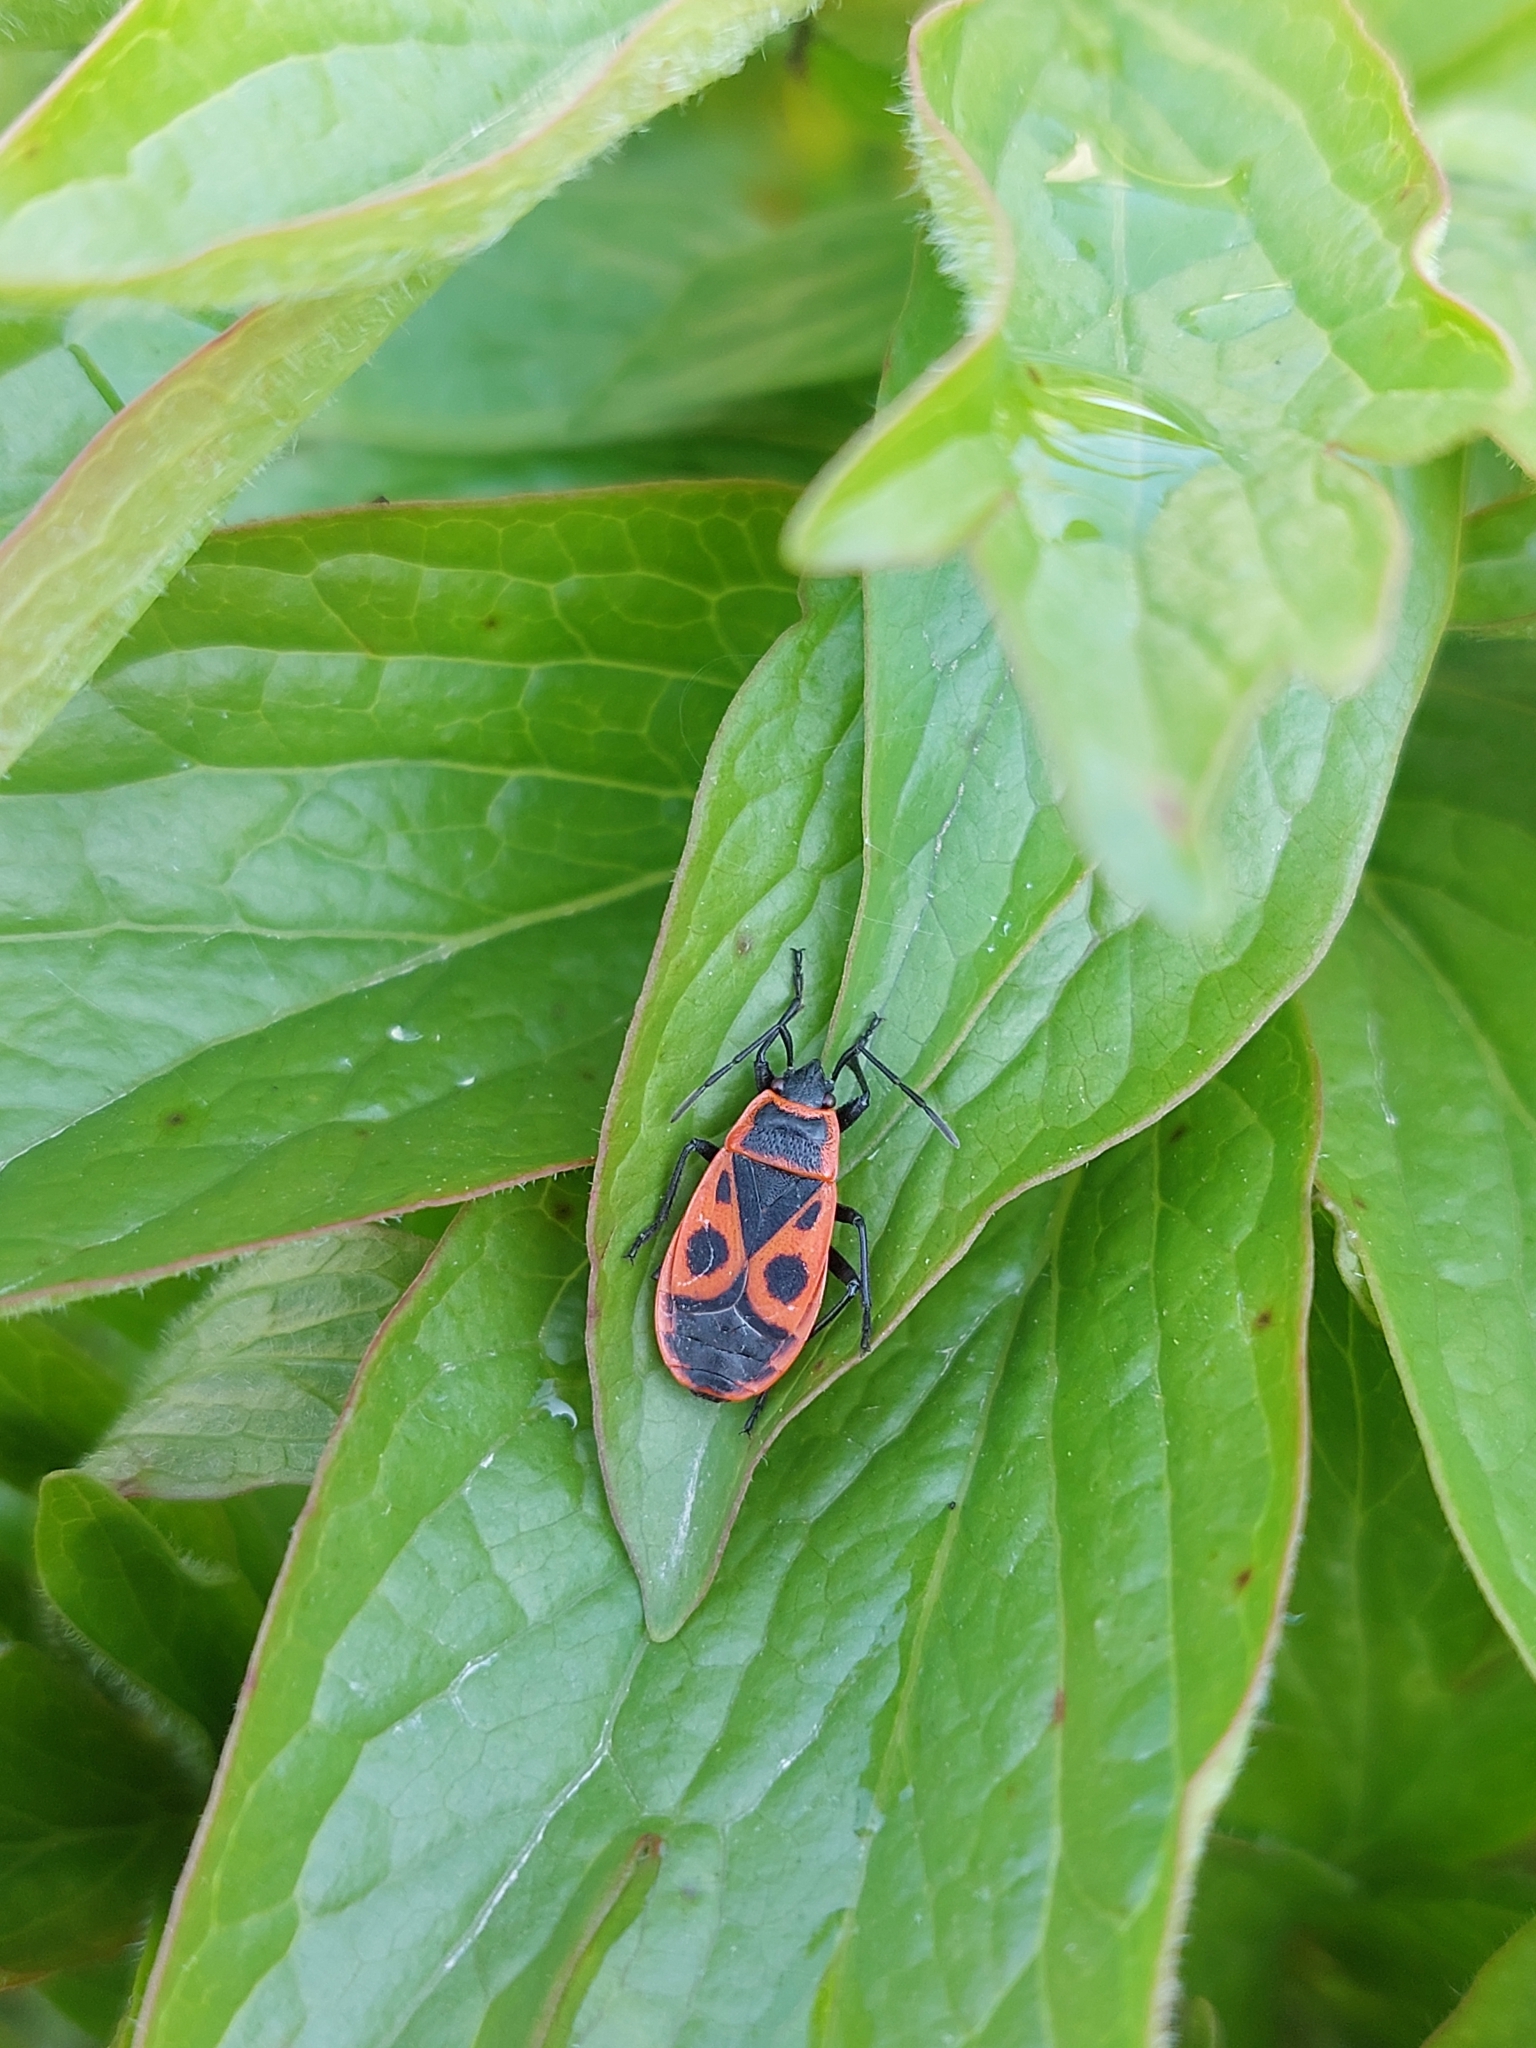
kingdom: Animalia
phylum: Arthropoda
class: Insecta
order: Hemiptera
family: Pyrrhocoridae
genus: Pyrrhocoris
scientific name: Pyrrhocoris apterus
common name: Firebug
